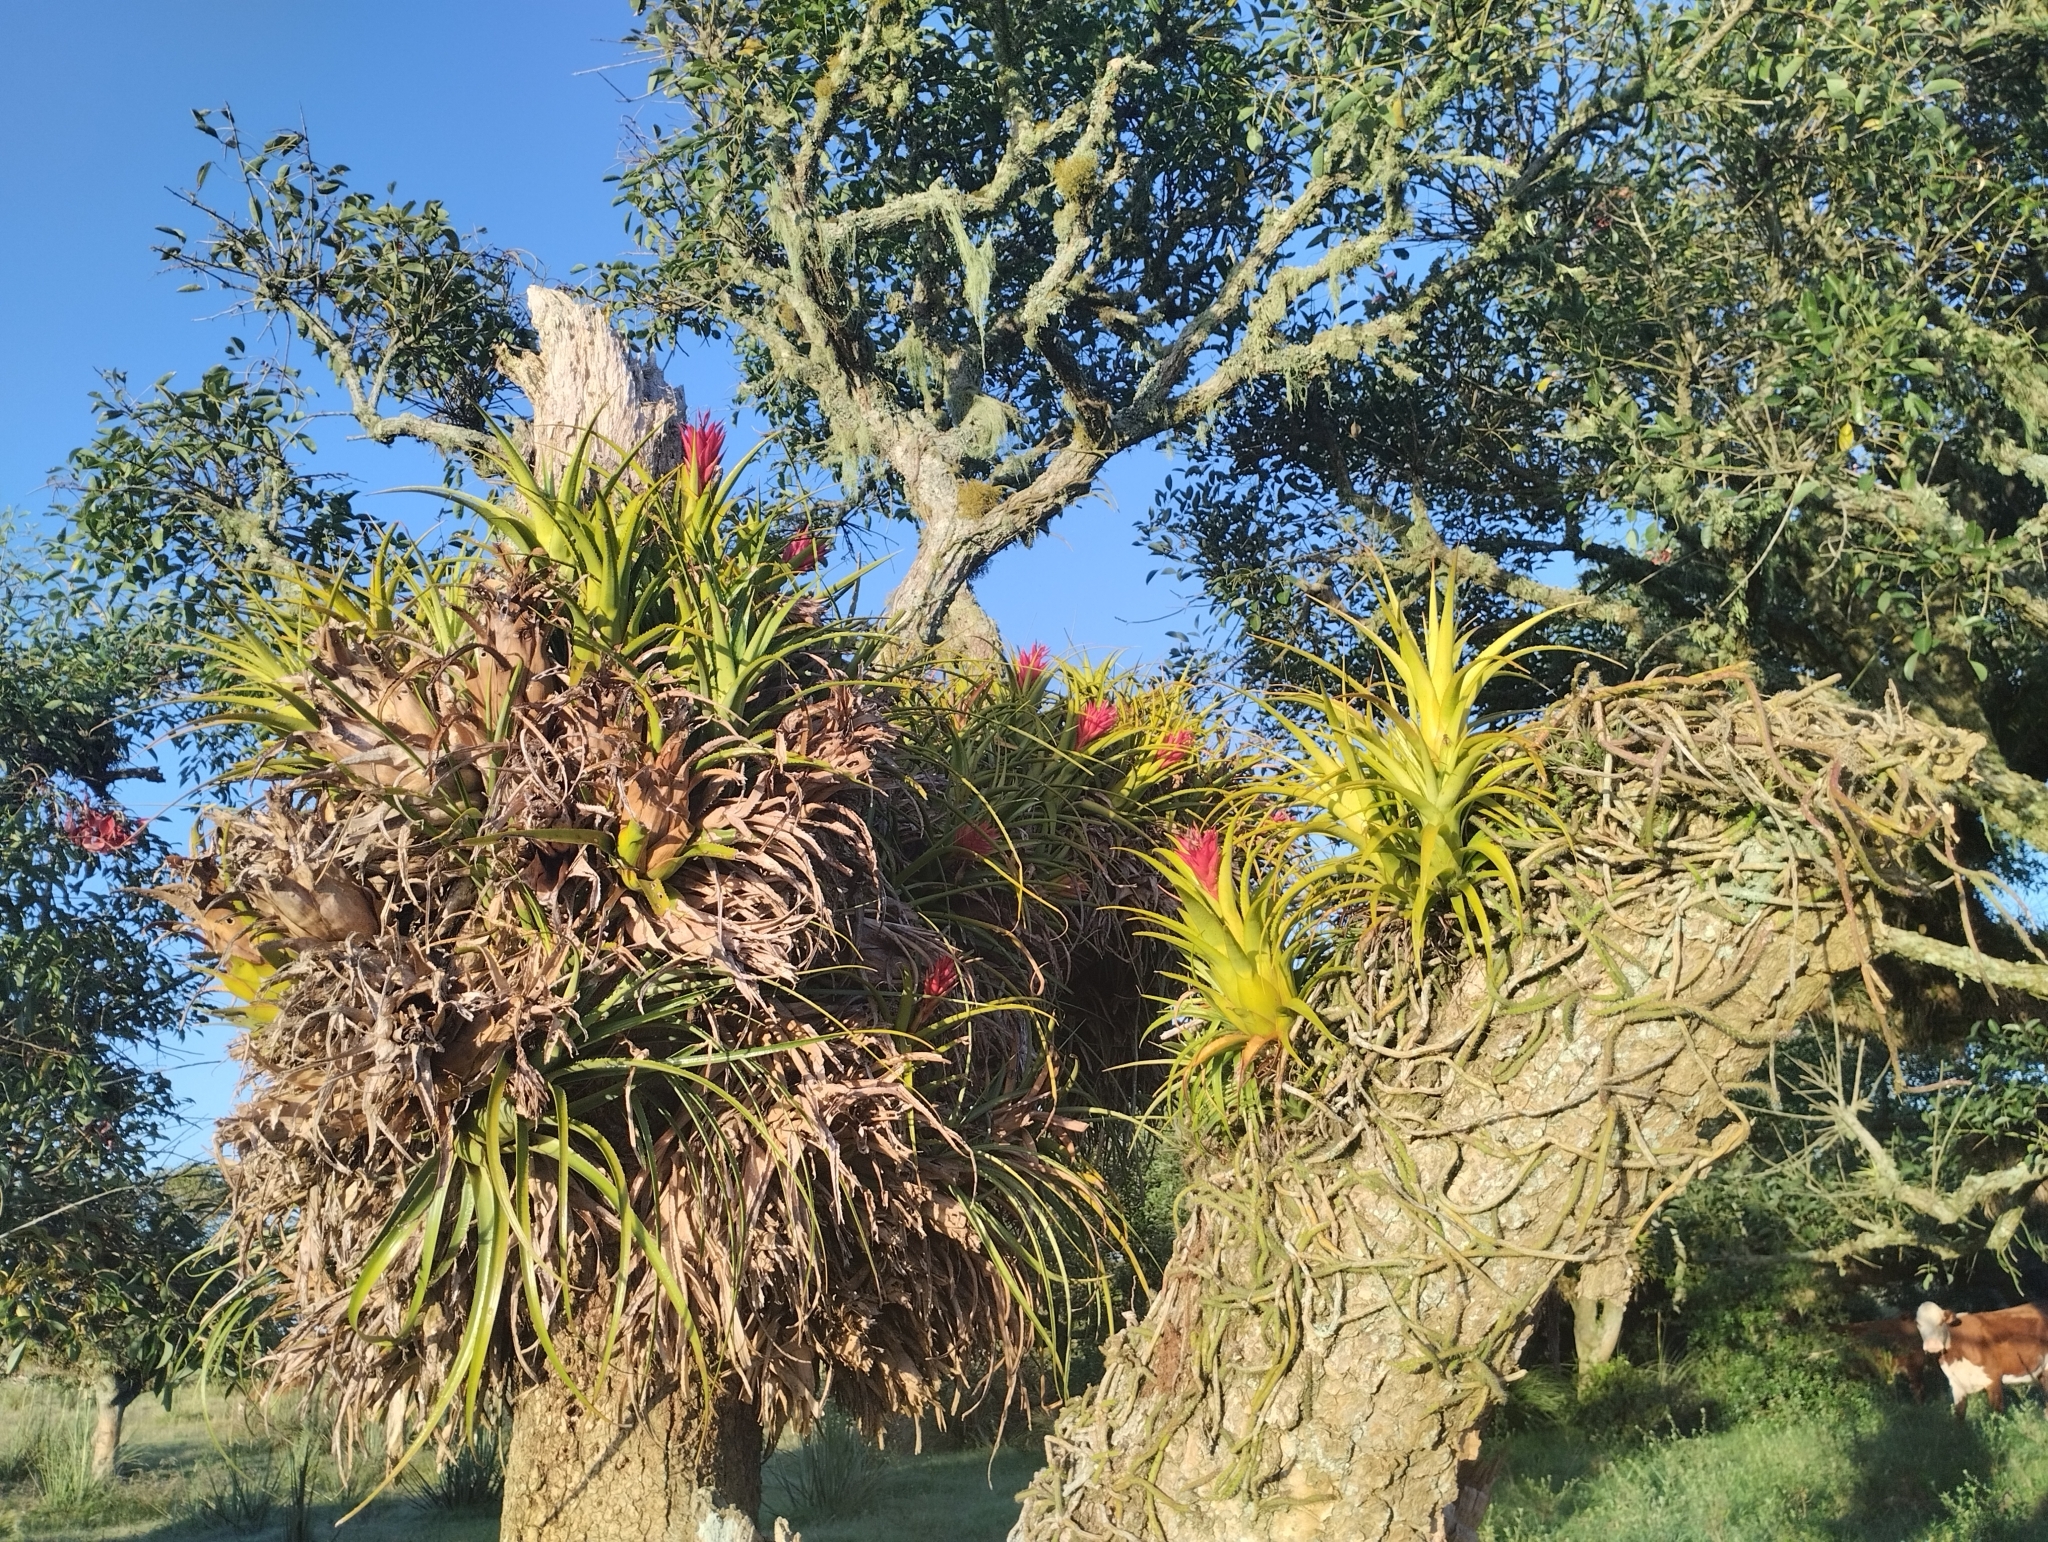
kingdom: Plantae
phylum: Tracheophyta
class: Liliopsida
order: Poales
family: Bromeliaceae
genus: Aechmea
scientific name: Aechmea recurvata
